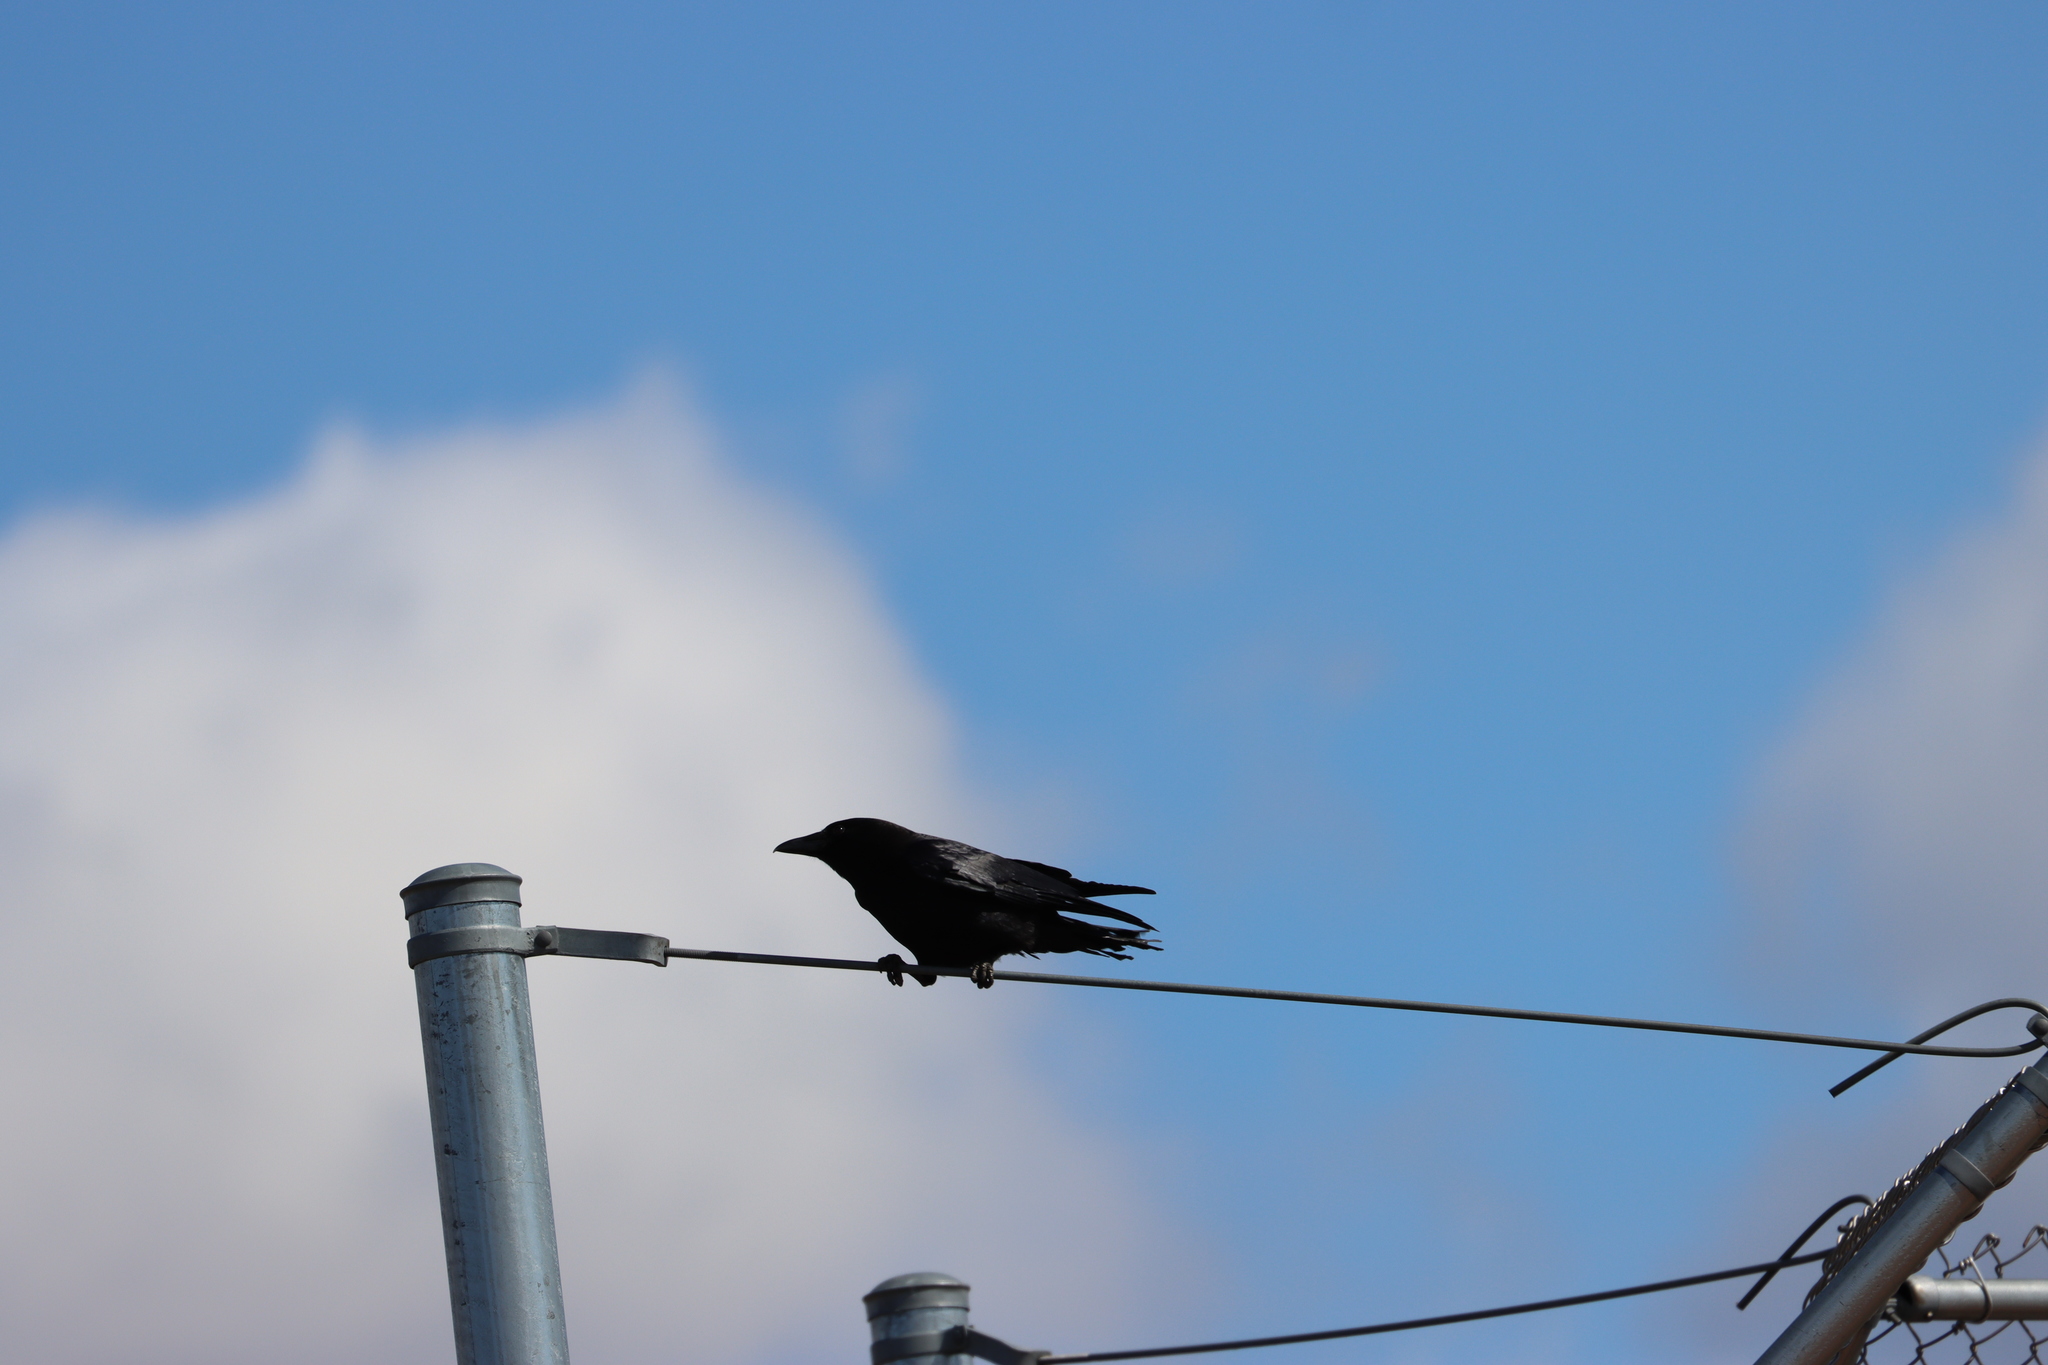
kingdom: Animalia
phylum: Chordata
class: Aves
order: Passeriformes
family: Corvidae
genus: Corvus
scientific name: Corvus brachyrhynchos
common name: American crow
